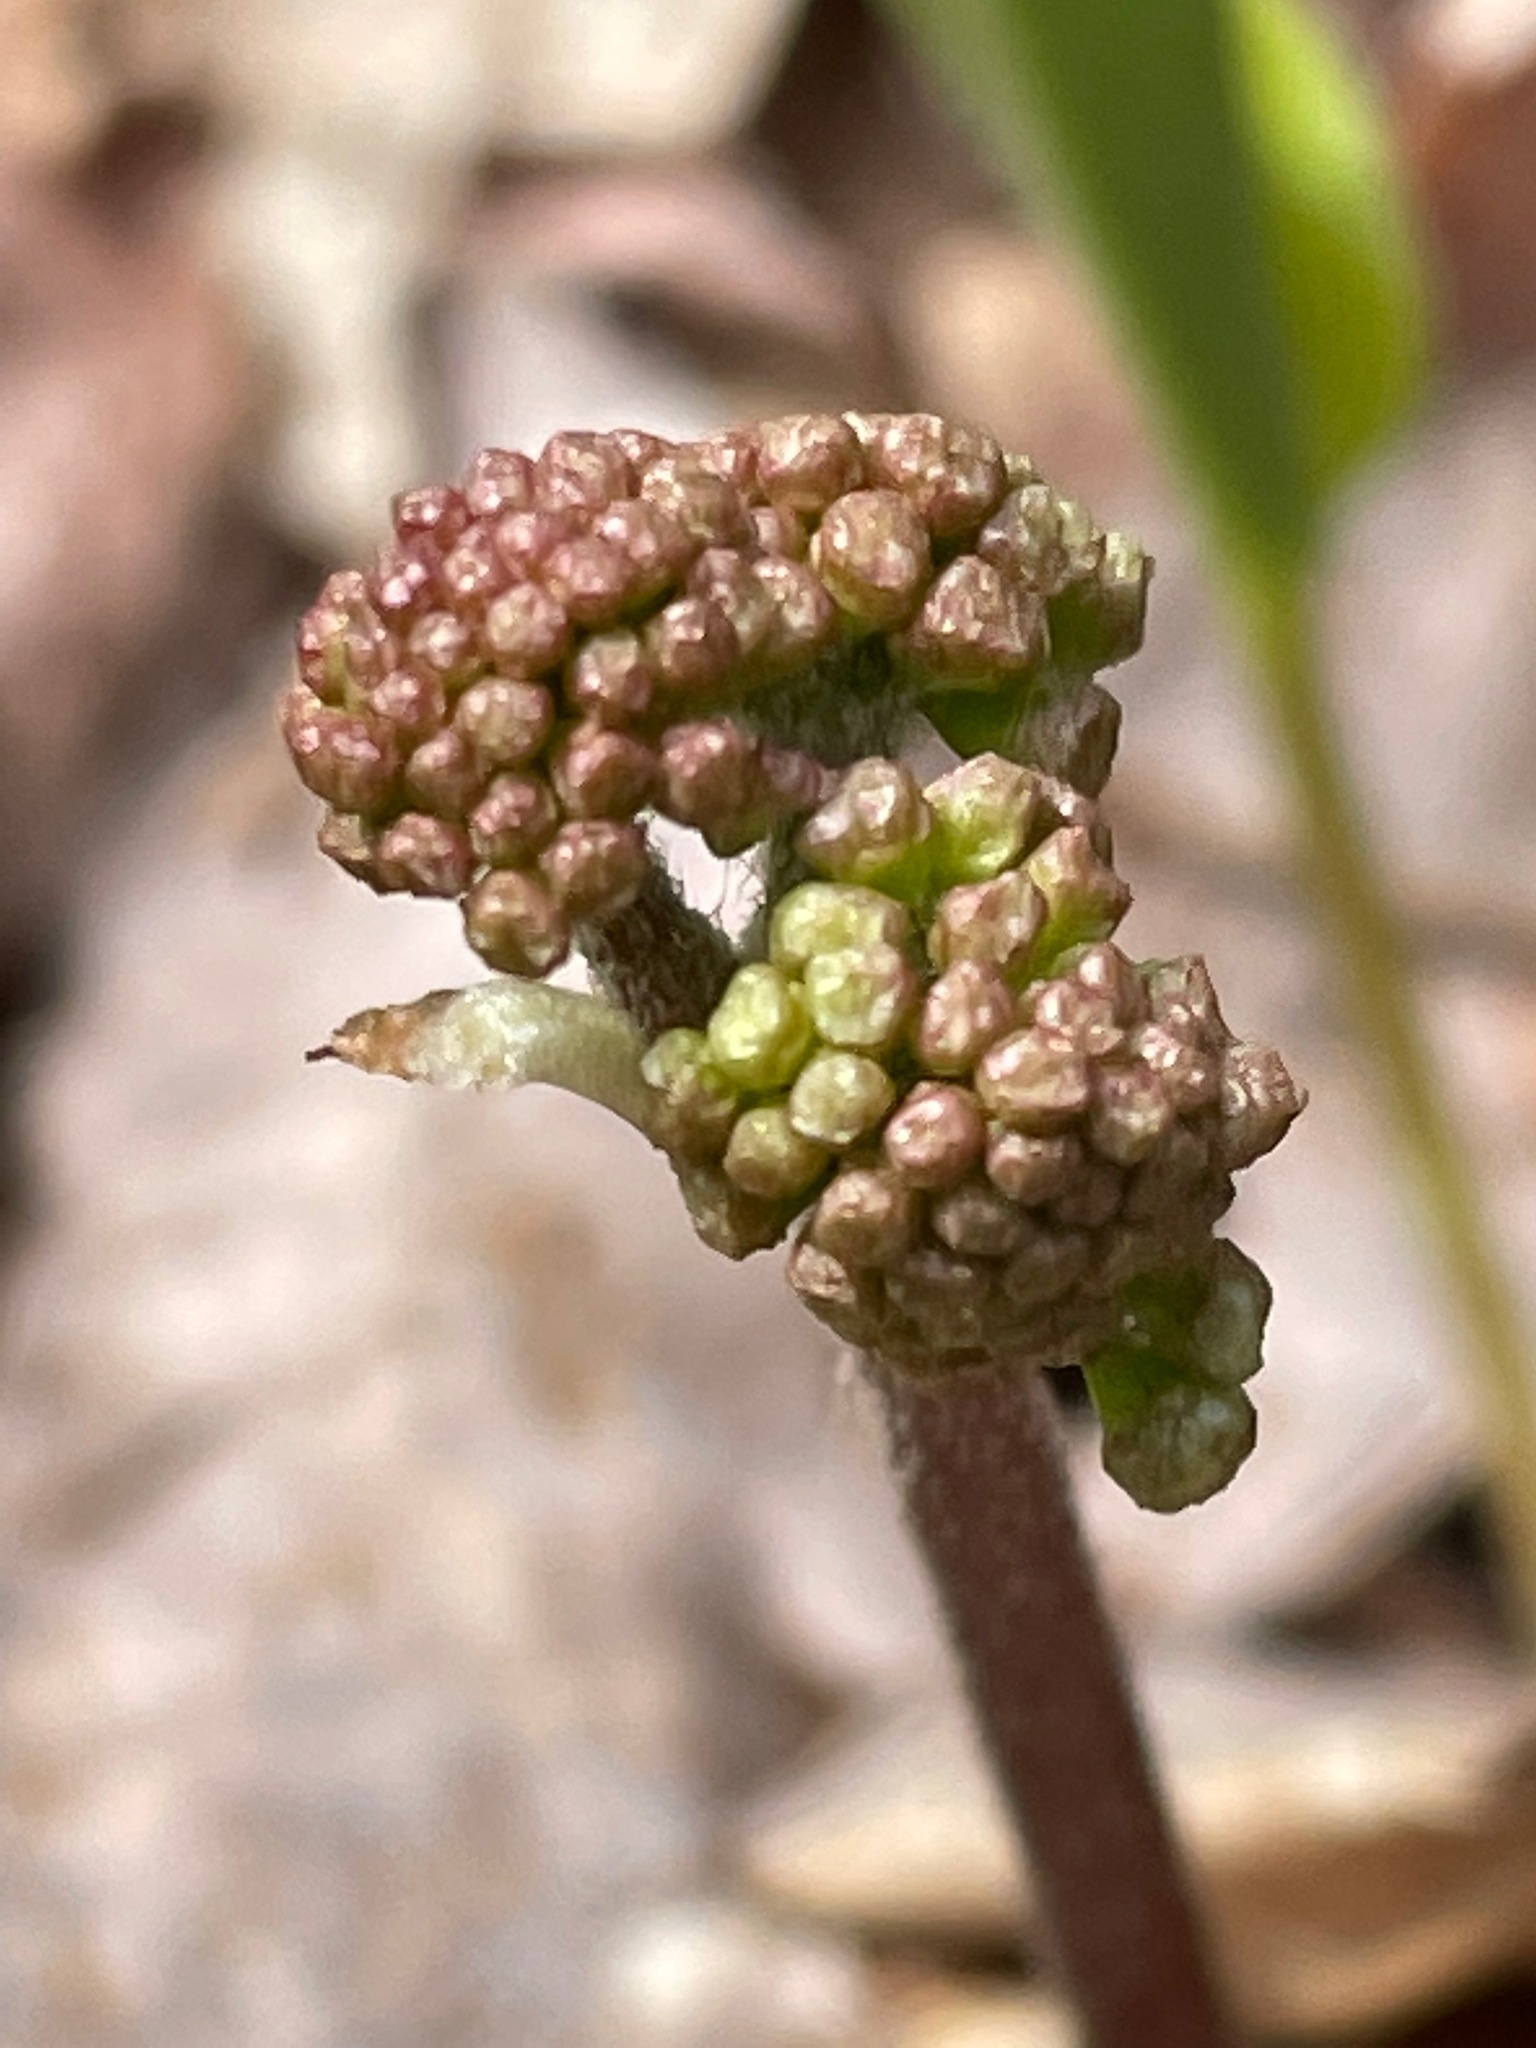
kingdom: Plantae
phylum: Tracheophyta
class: Magnoliopsida
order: Apiales
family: Araliaceae
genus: Aralia
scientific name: Aralia nudicaulis
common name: Wild sarsaparilla
